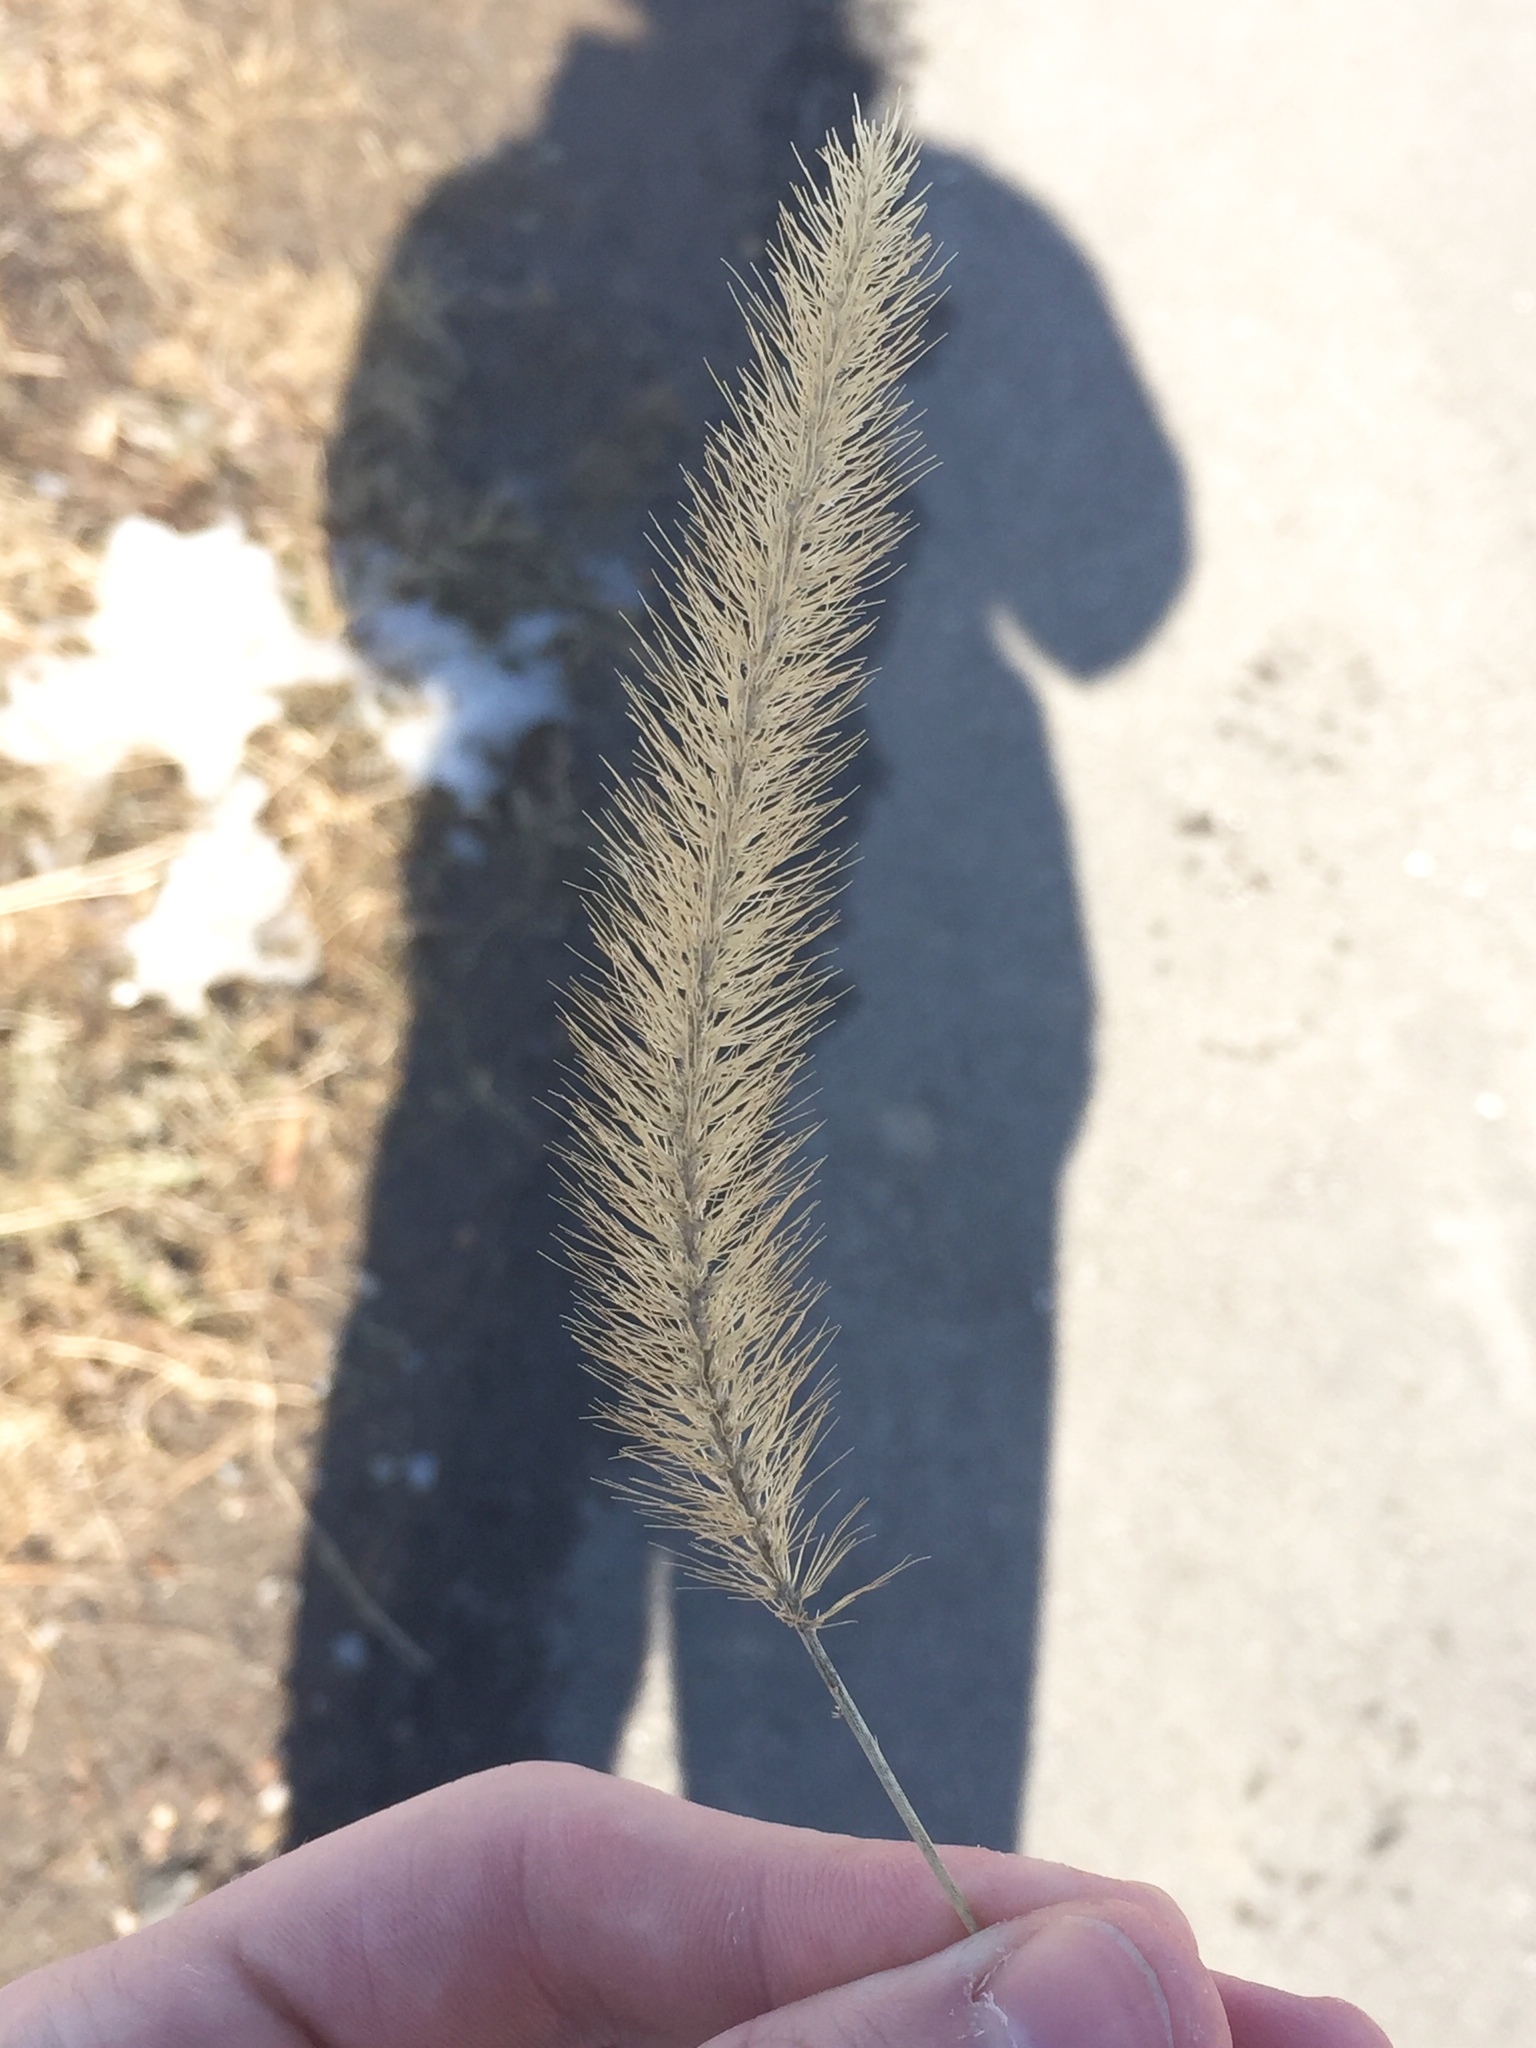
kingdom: Plantae
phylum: Tracheophyta
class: Liliopsida
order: Poales
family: Poaceae
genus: Setaria
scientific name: Setaria viridis
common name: Green bristlegrass
